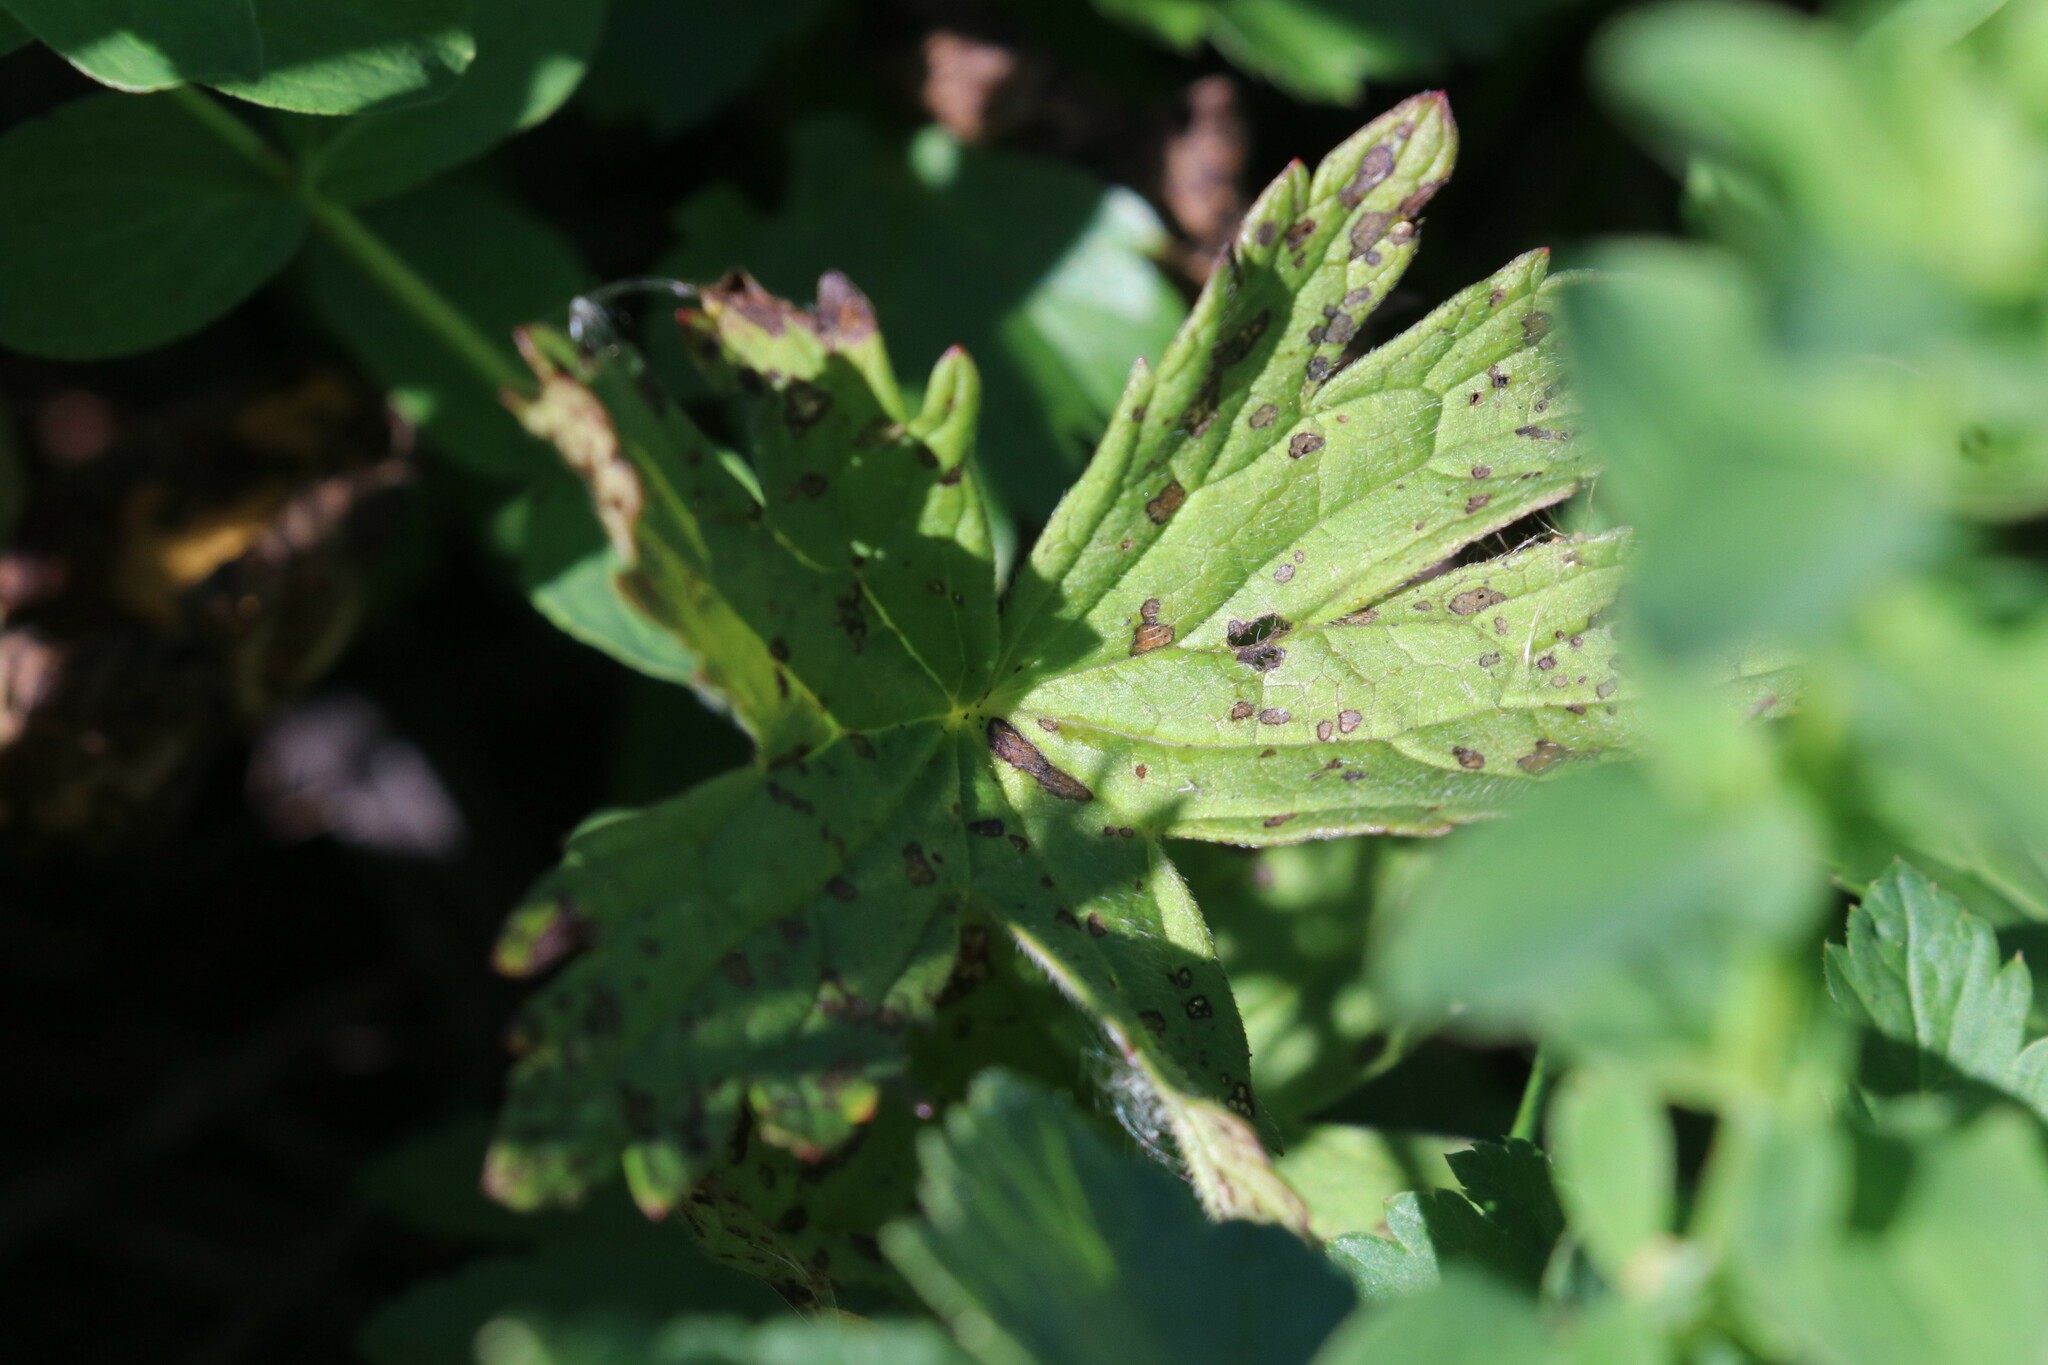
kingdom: Plantae
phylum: Tracheophyta
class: Magnoliopsida
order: Geraniales
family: Geraniaceae
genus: Geranium
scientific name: Geranium sylvaticum
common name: Wood crane's-bill
